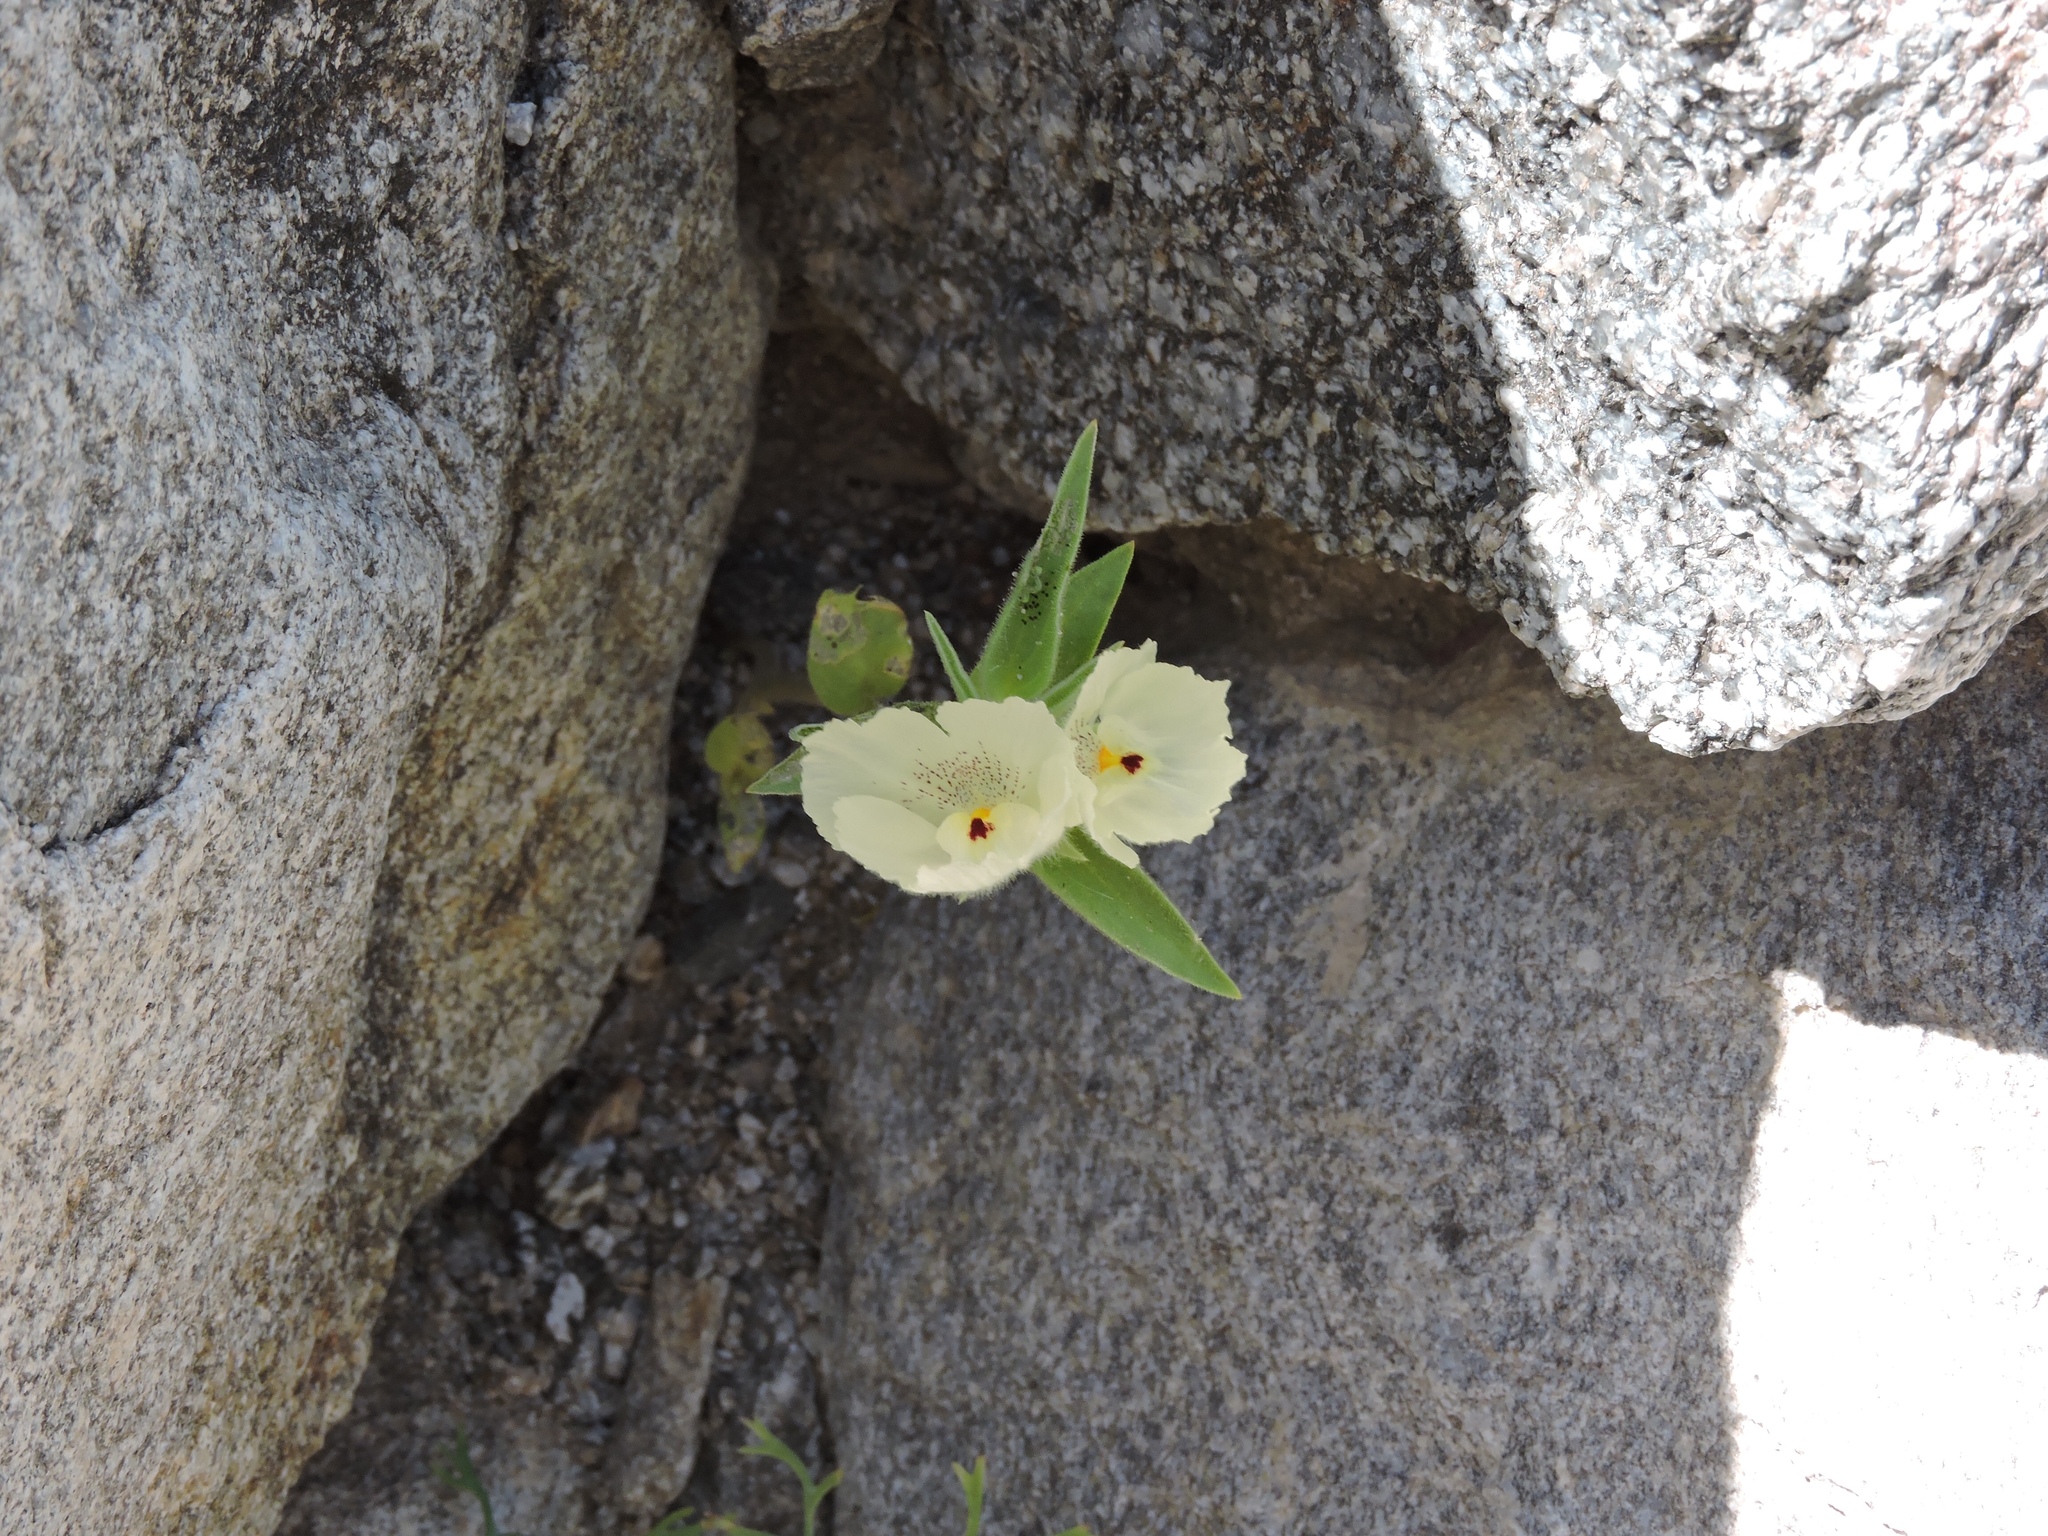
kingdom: Plantae
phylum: Tracheophyta
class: Magnoliopsida
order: Lamiales
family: Plantaginaceae
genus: Mohavea
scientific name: Mohavea confertiflora
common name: Ghost flower
